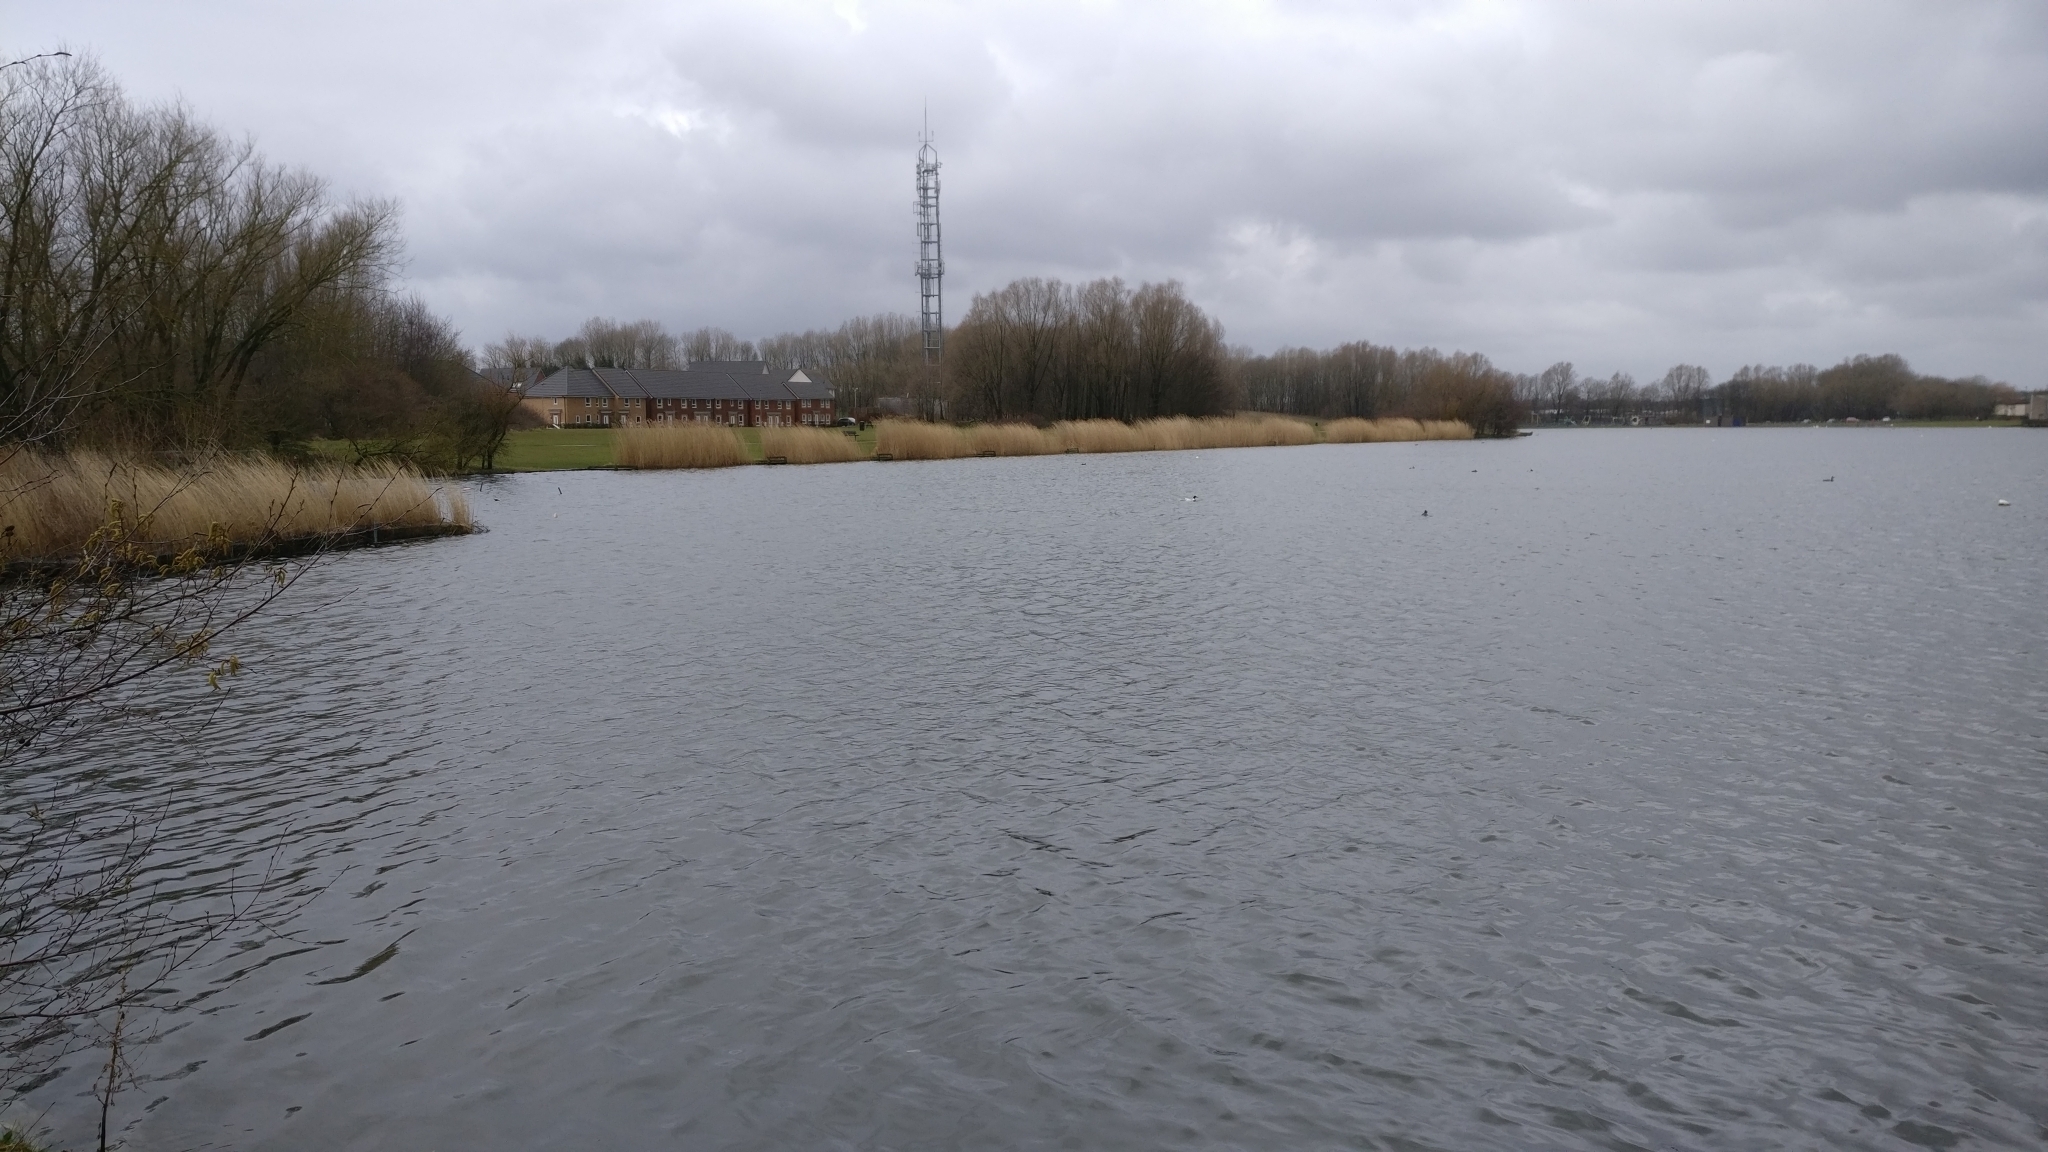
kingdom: Animalia
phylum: Chordata
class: Aves
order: Anseriformes
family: Anatidae
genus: Mergus
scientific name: Mergus merganser
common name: Common merganser
